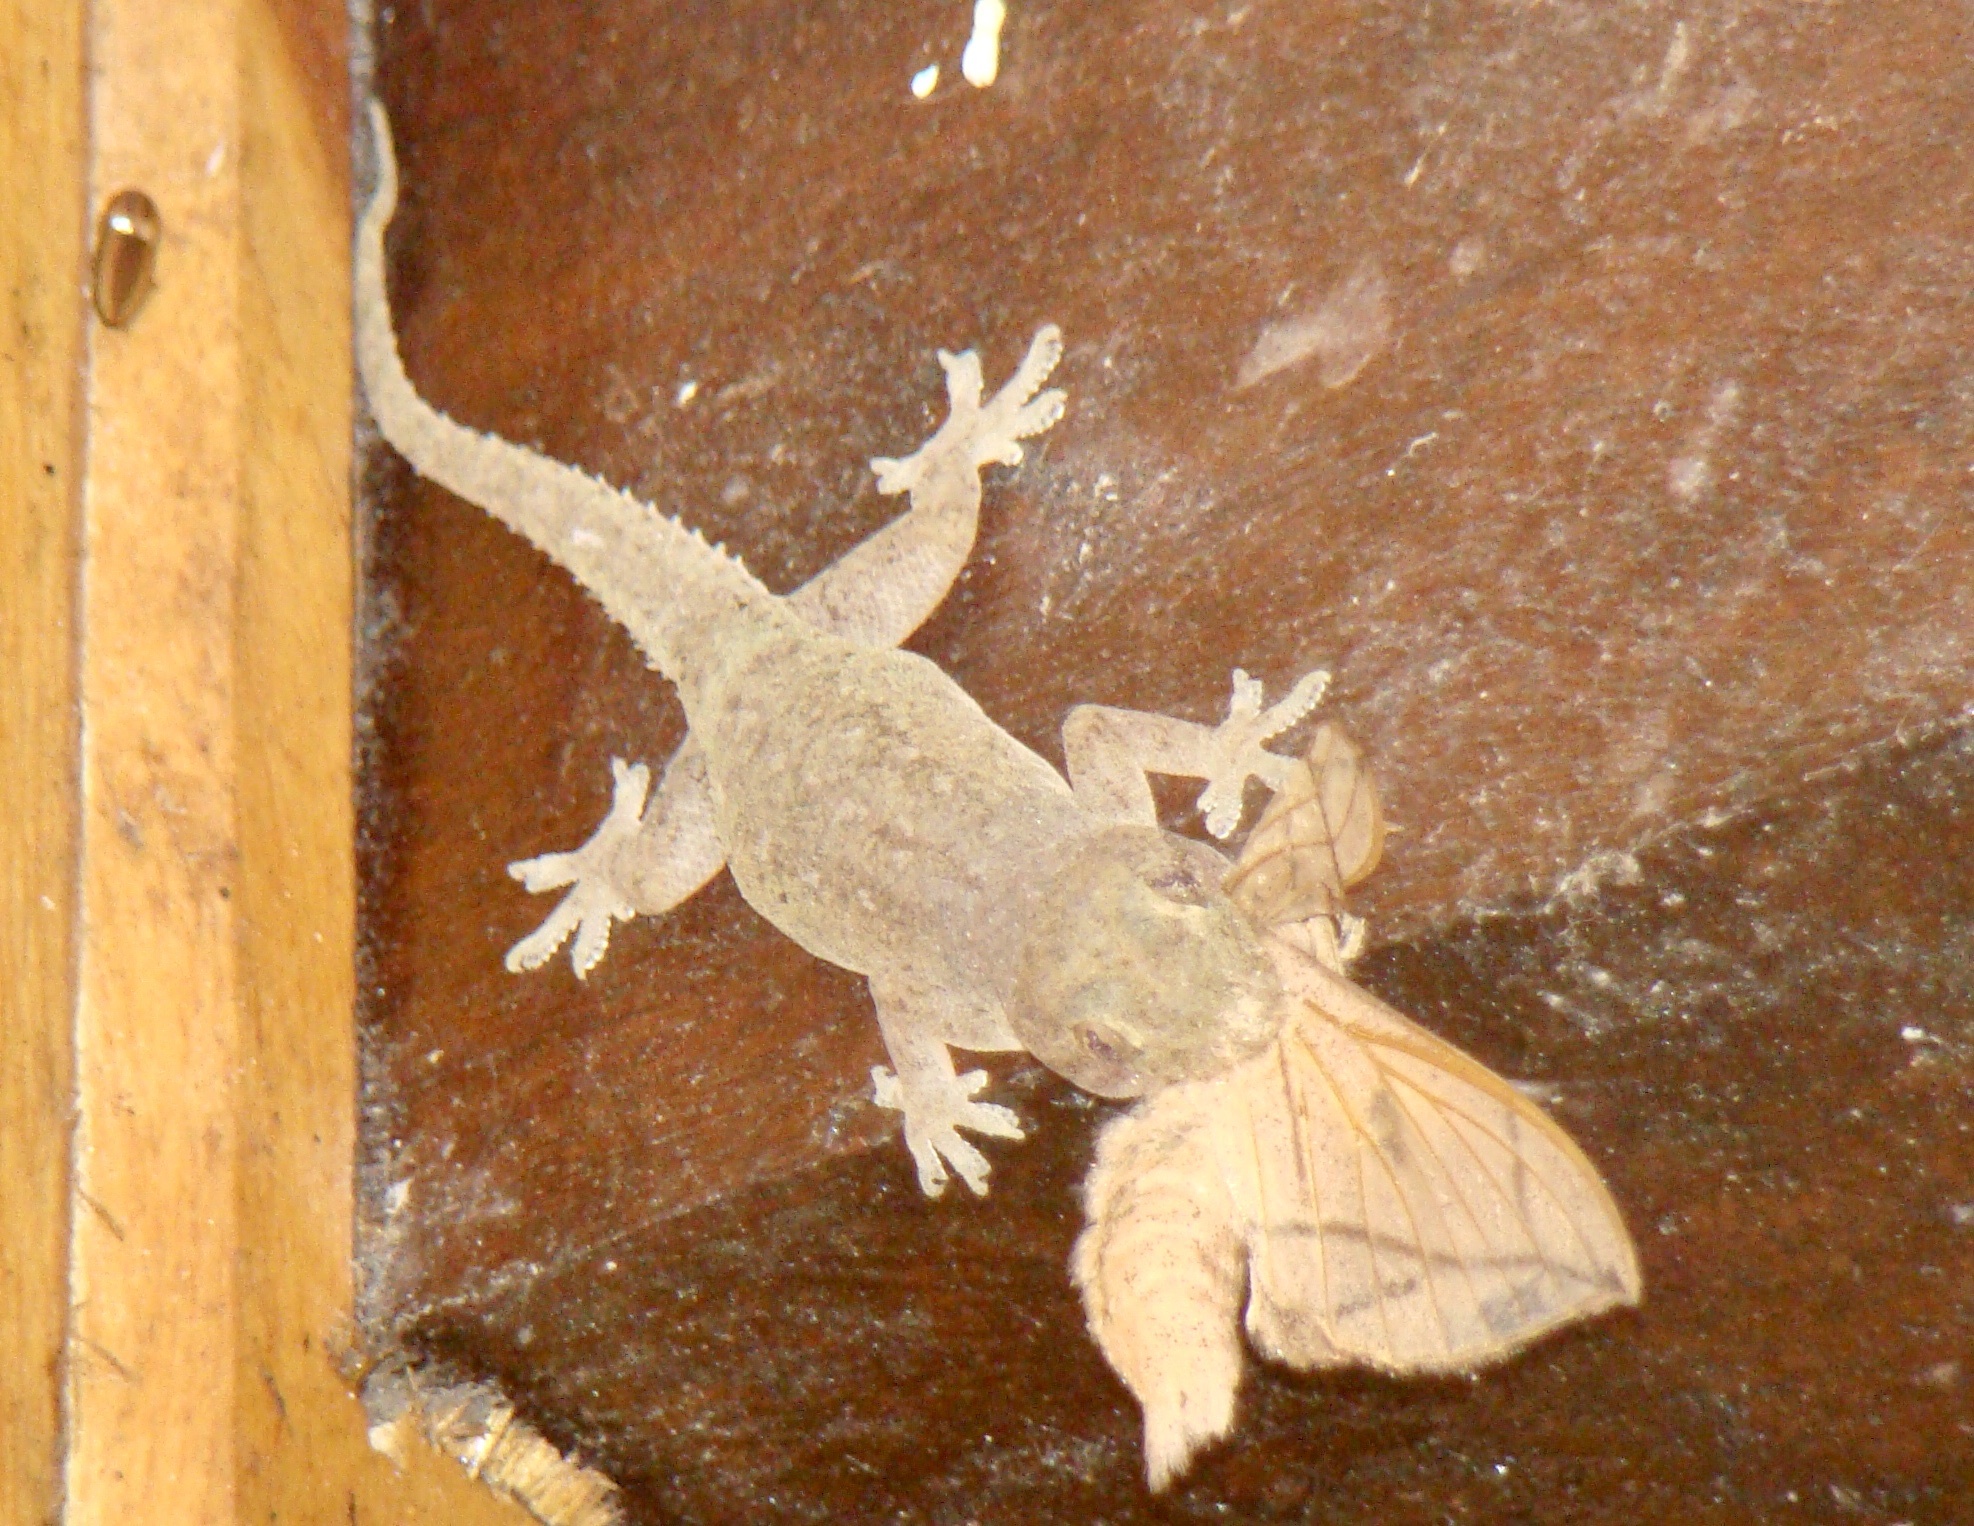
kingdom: Animalia
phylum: Chordata
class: Squamata
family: Gekkonidae
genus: Hemidactylus
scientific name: Hemidactylus frenatus
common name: Common house gecko
